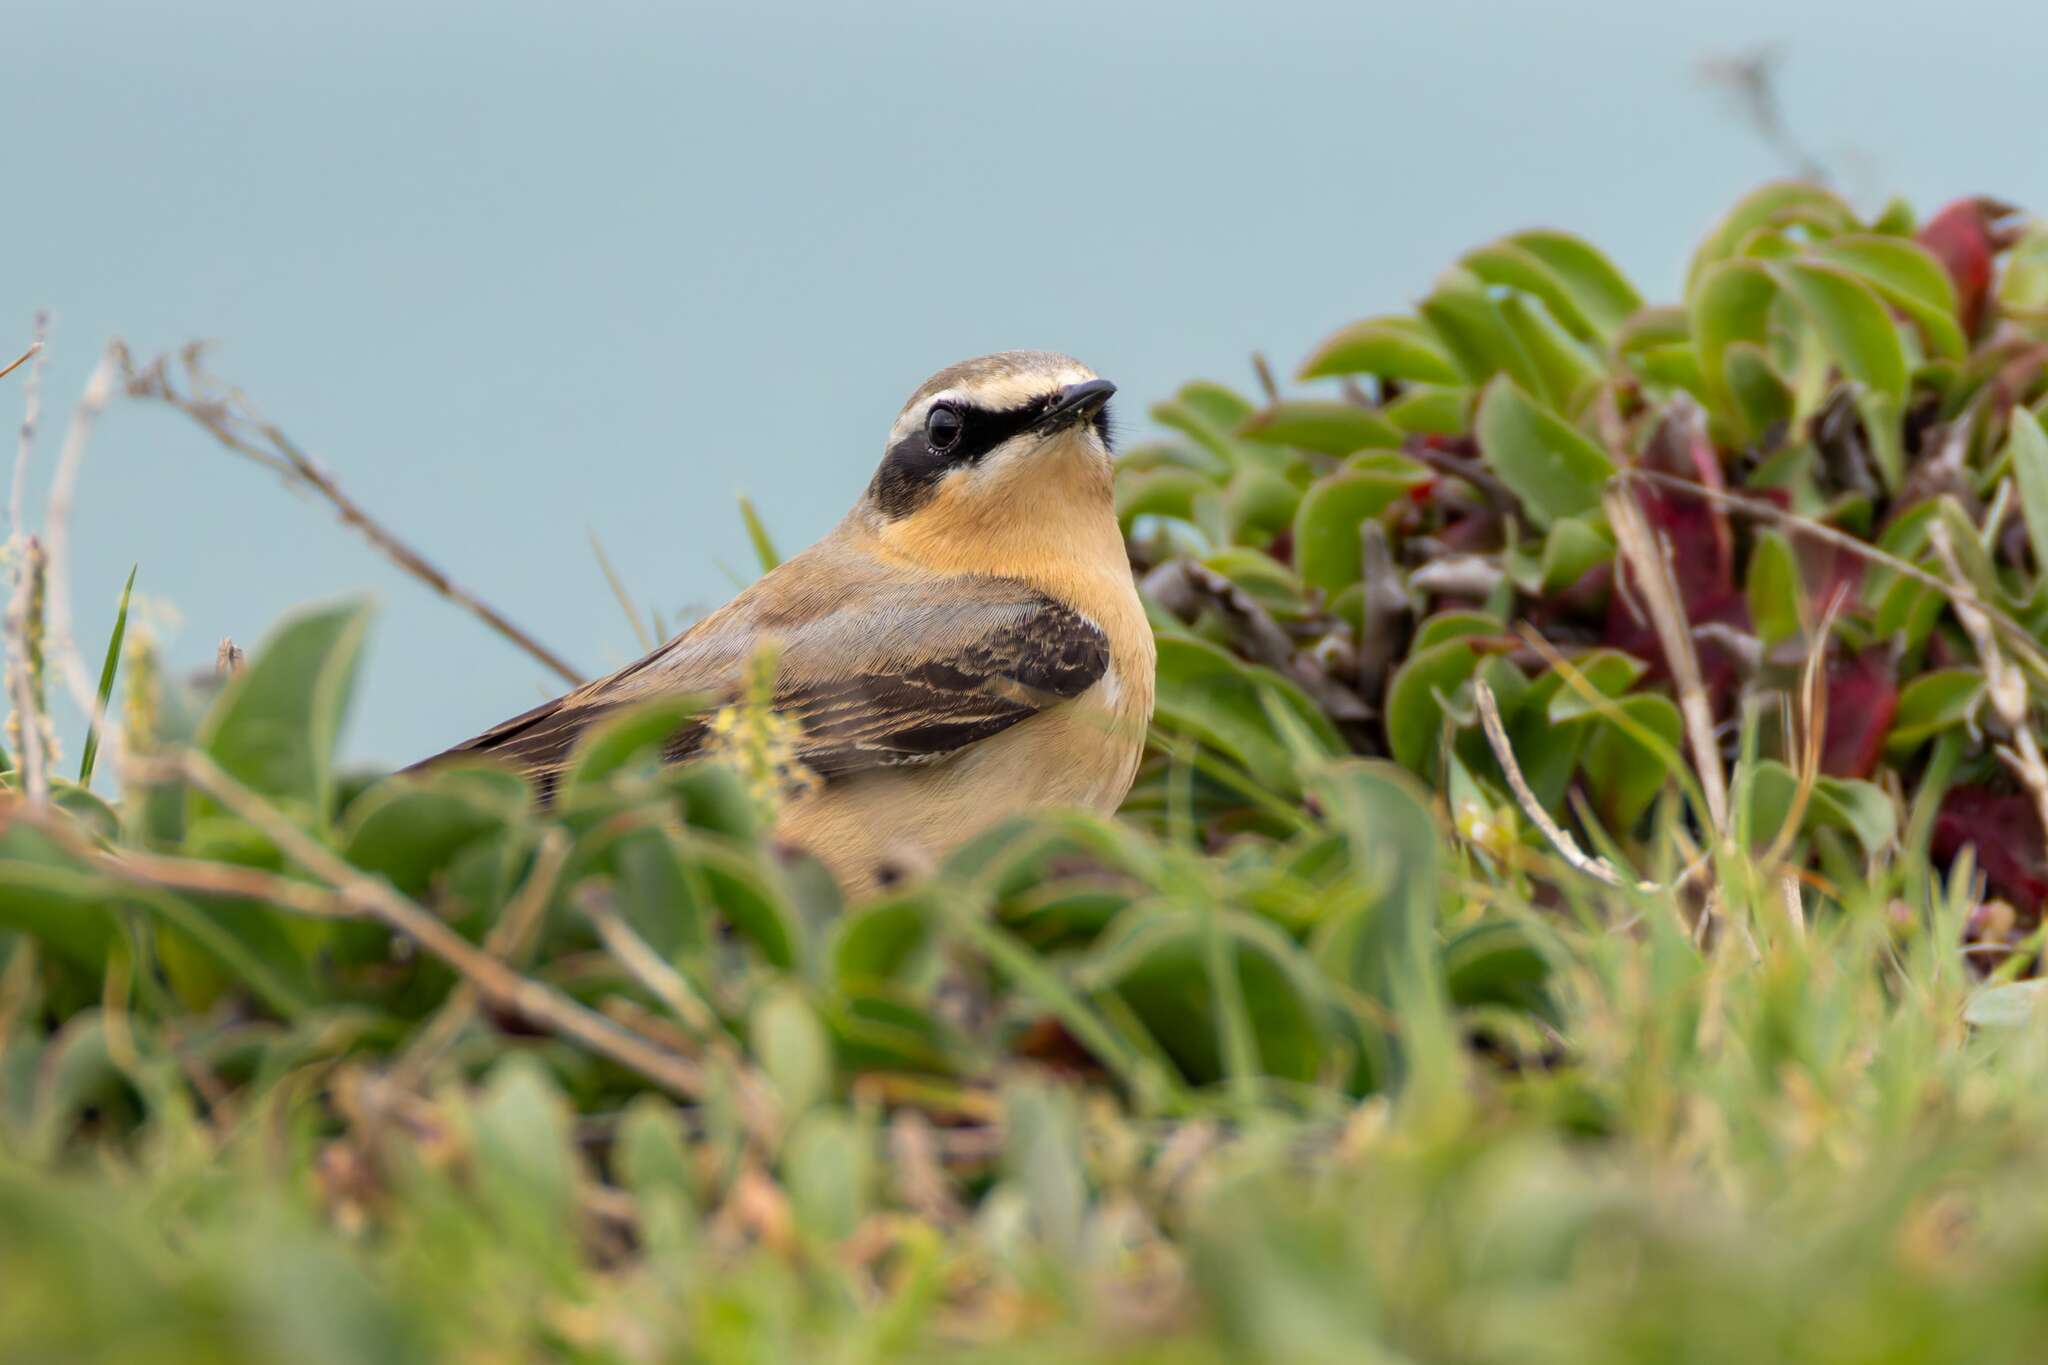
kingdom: Animalia
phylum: Chordata
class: Aves
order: Passeriformes
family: Muscicapidae
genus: Oenanthe
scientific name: Oenanthe oenanthe
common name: Northern wheatear
